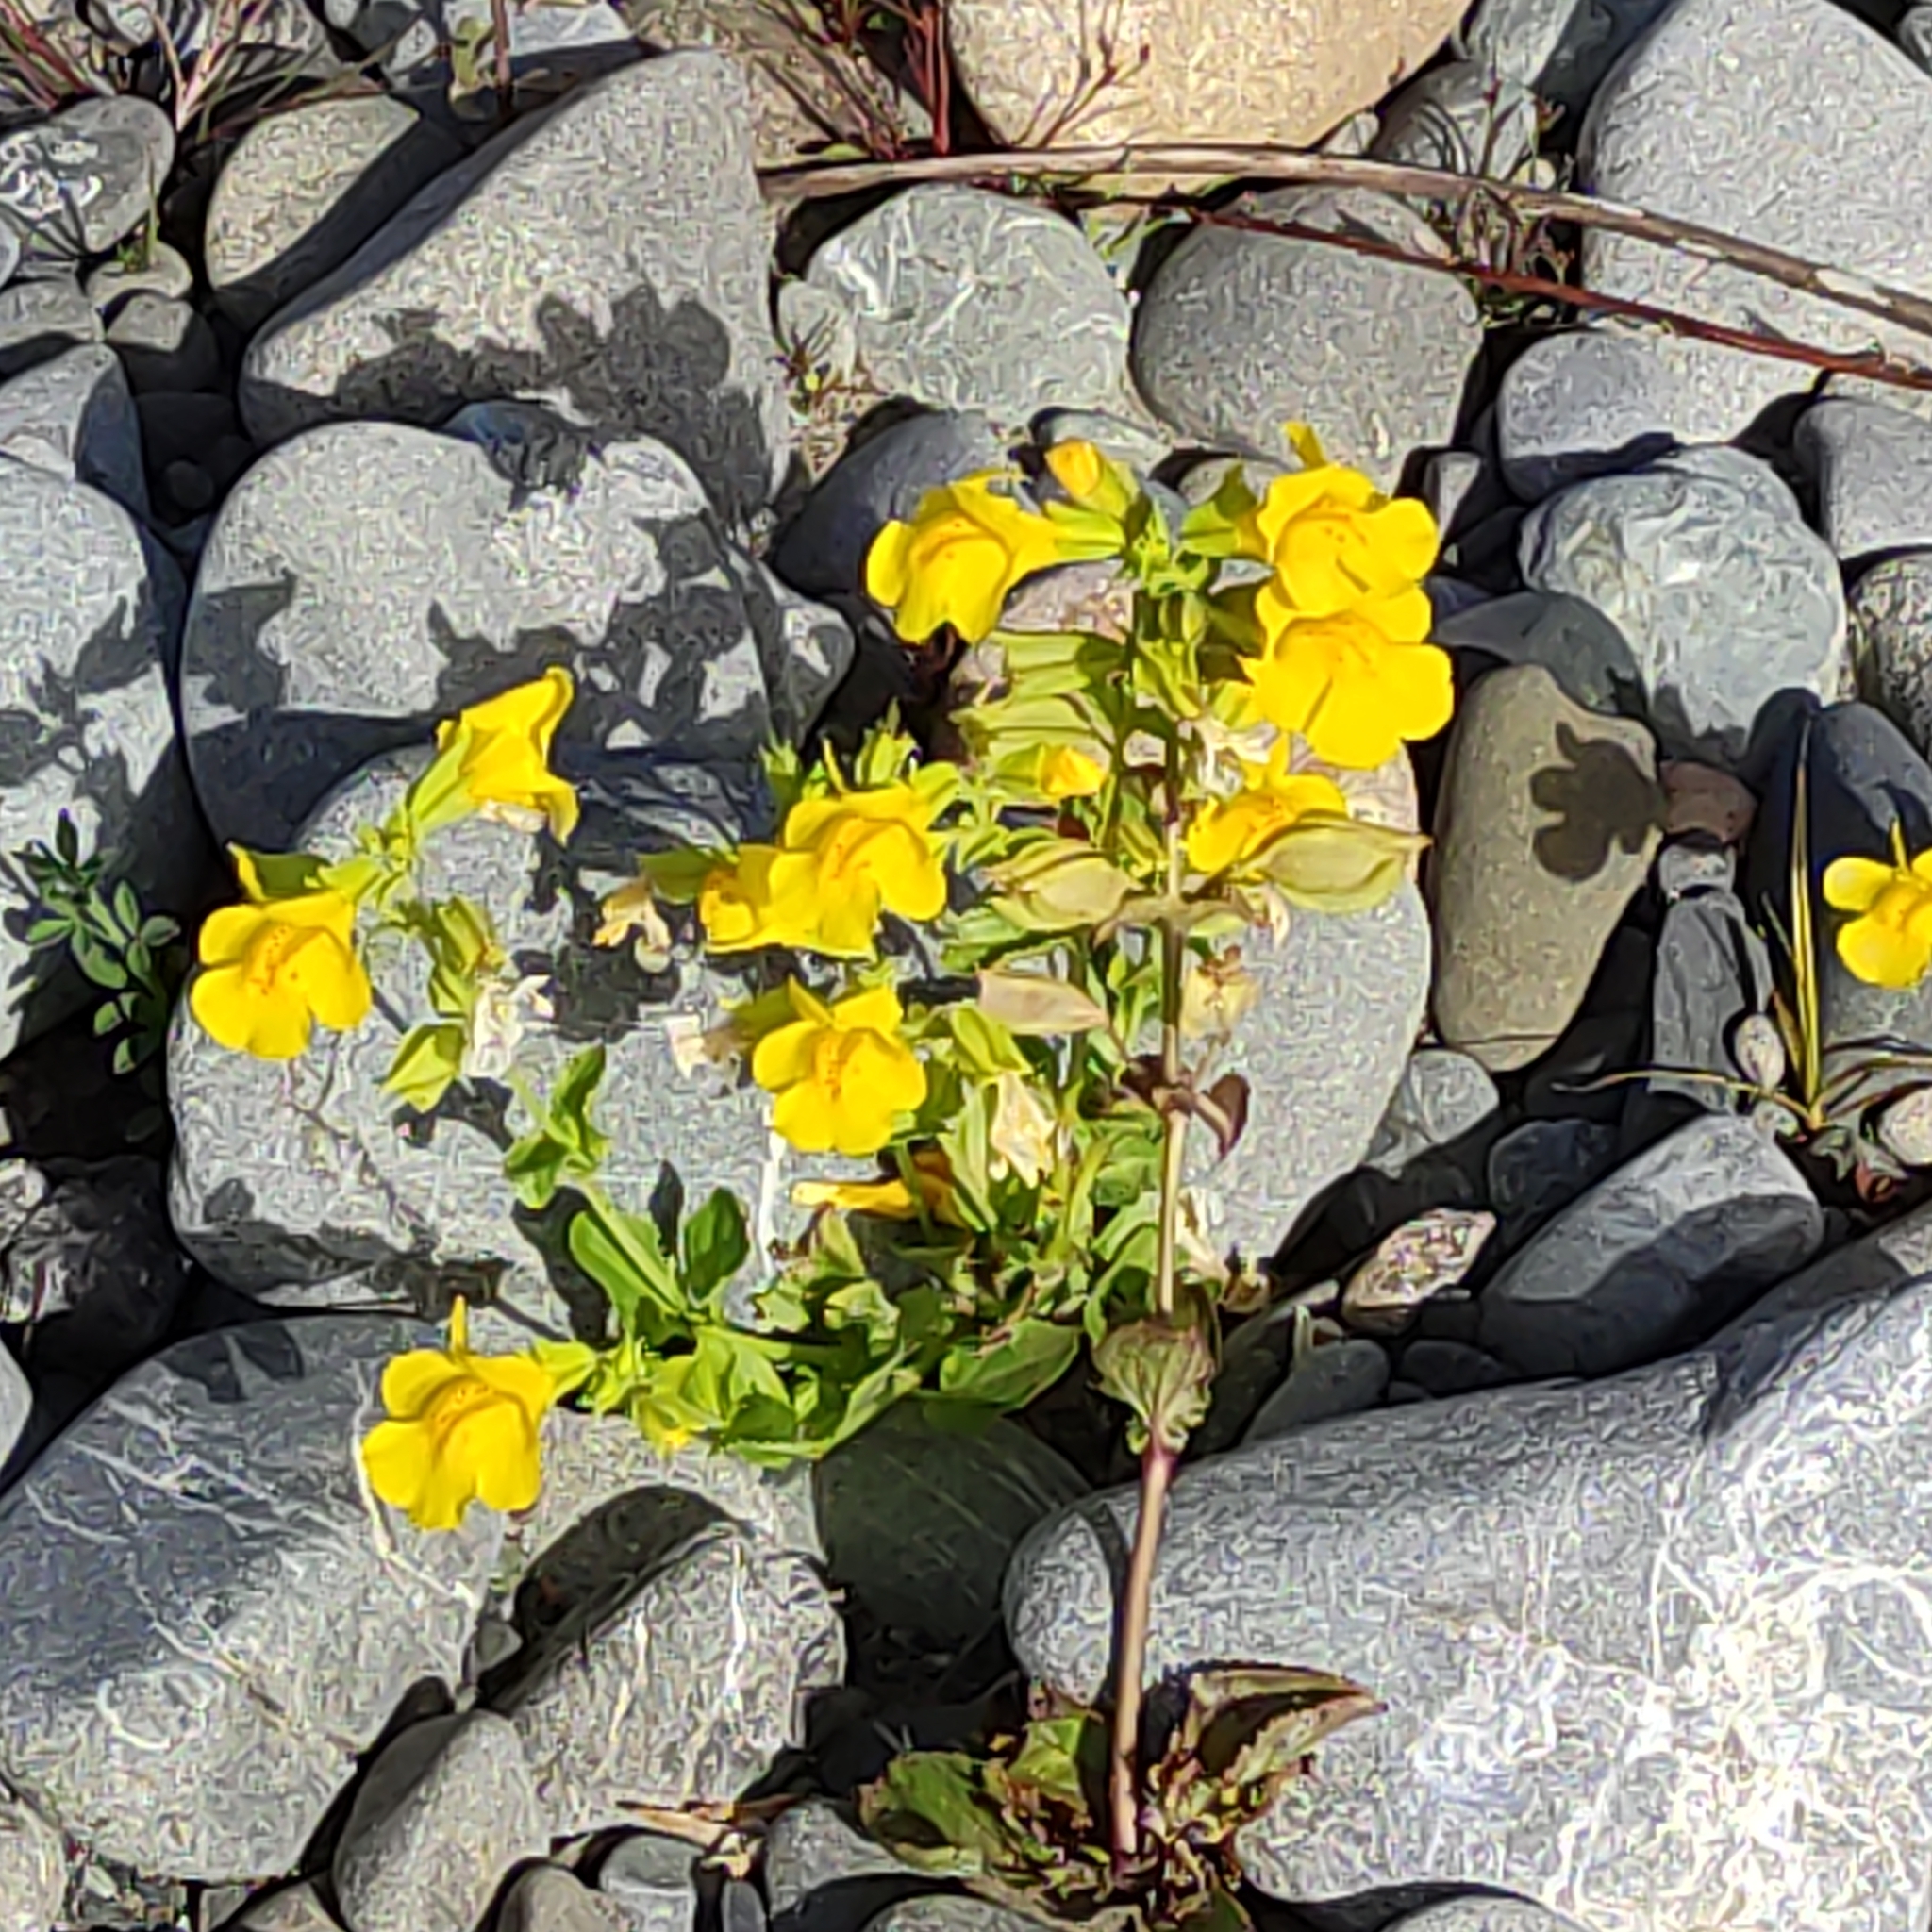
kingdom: Plantae
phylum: Tracheophyta
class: Magnoliopsida
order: Lamiales
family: Phrymaceae
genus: Erythranthe
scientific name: Erythranthe guttata
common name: Monkeyflower
